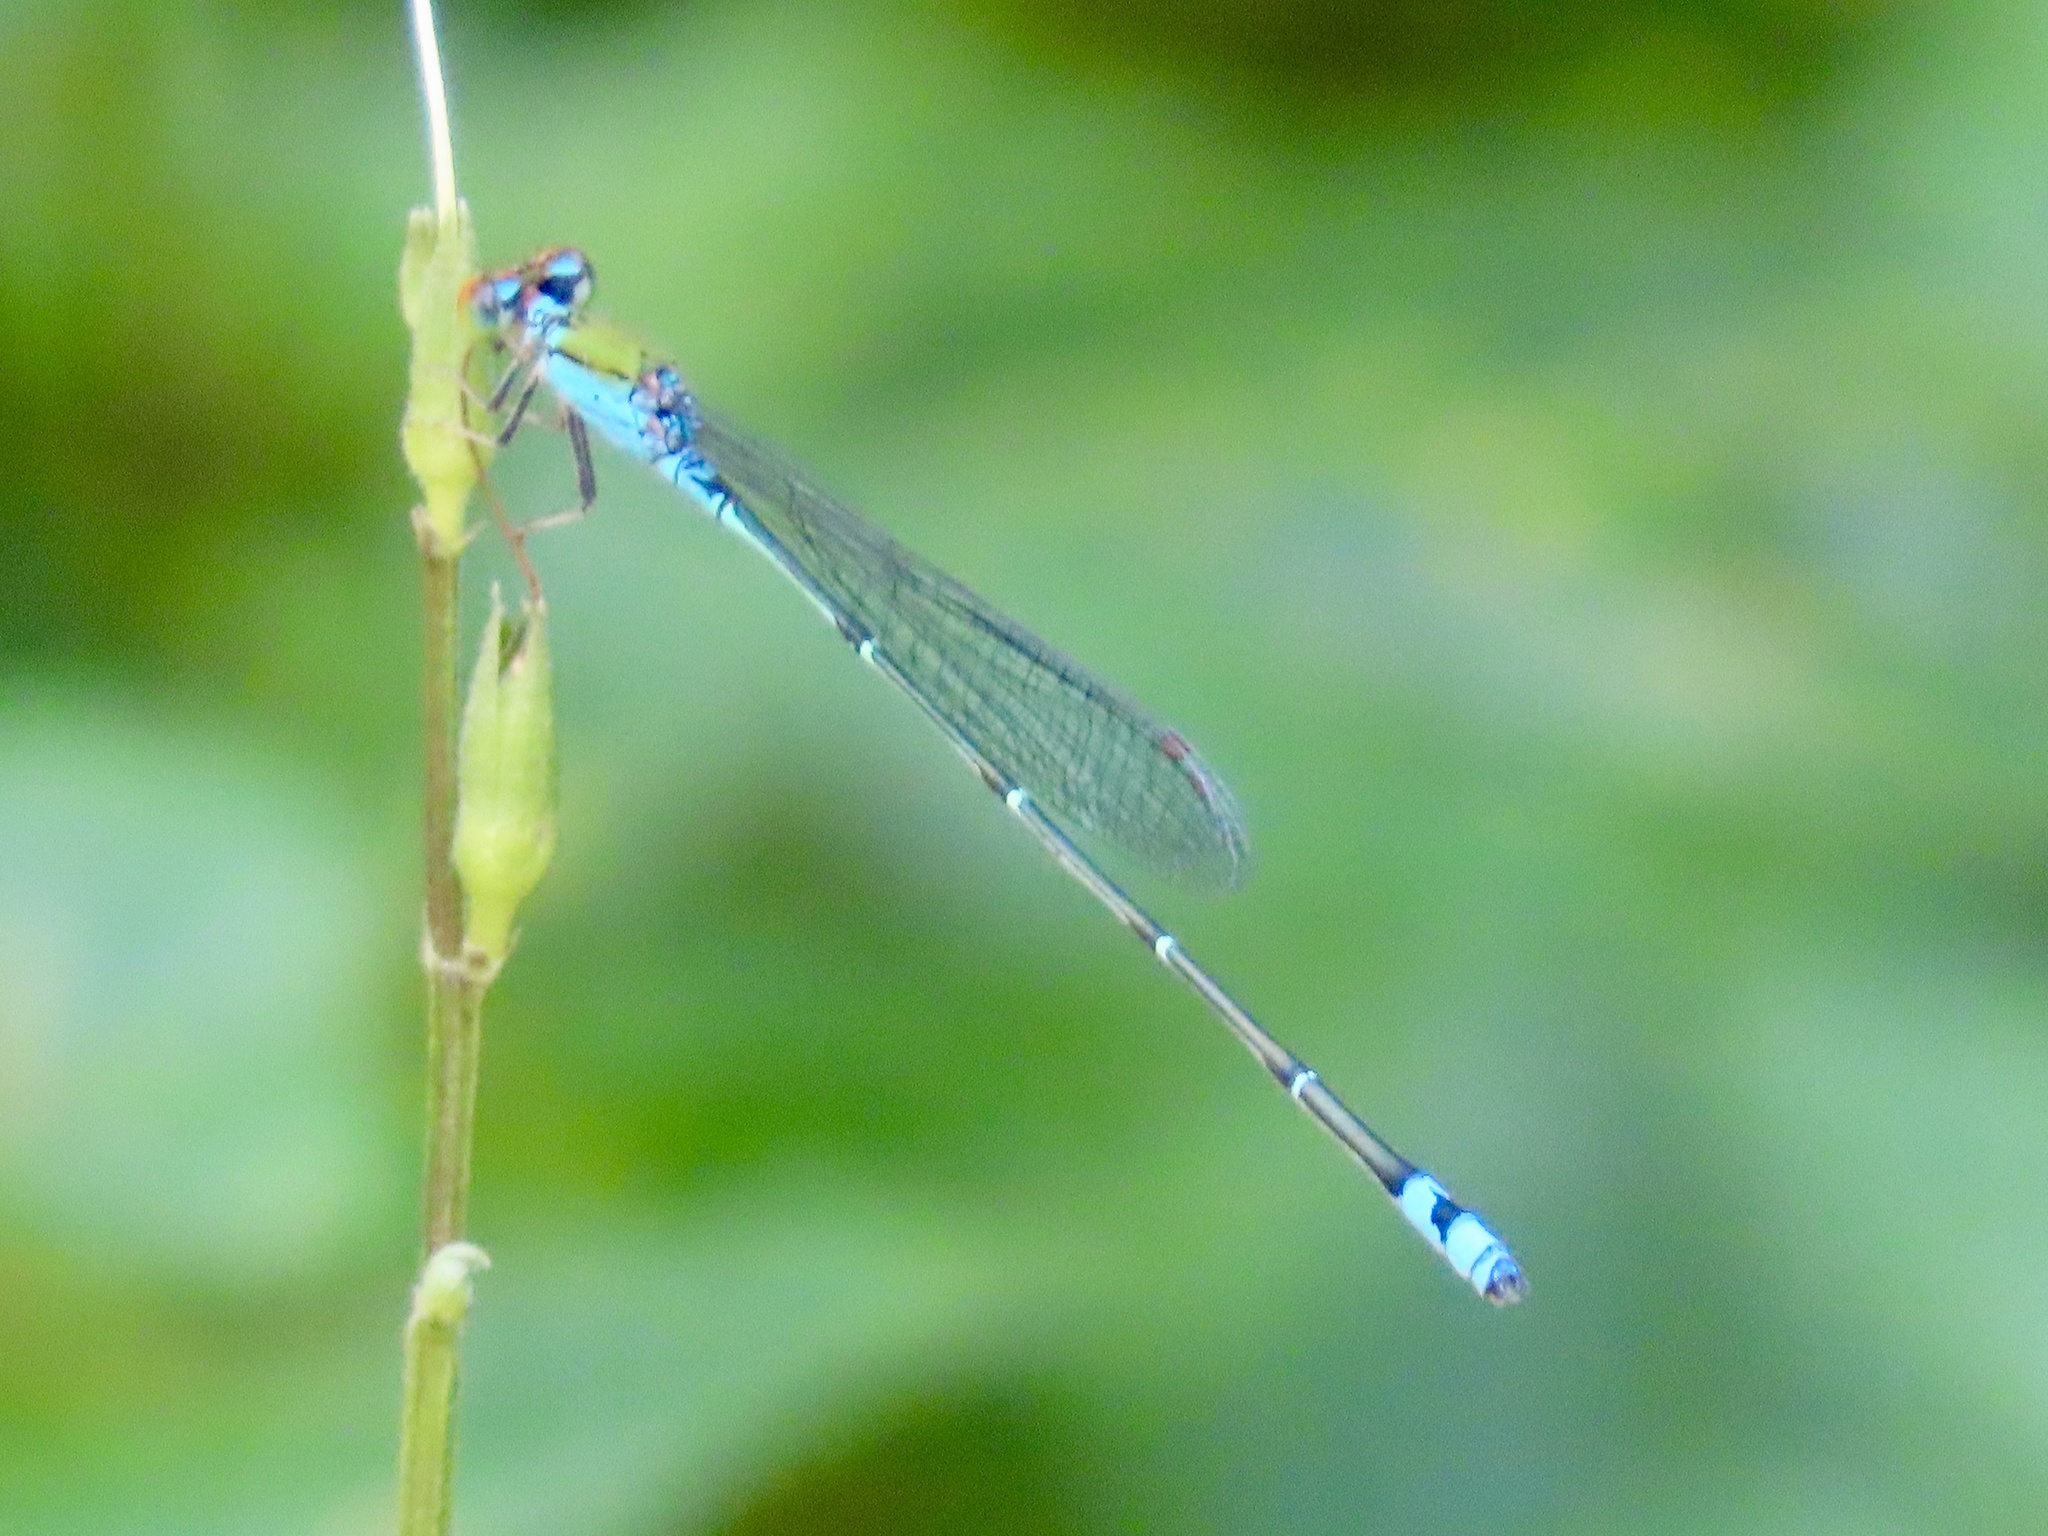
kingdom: Animalia
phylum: Arthropoda
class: Insecta
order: Odonata
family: Coenagrionidae
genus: Pseudagrion
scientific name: Pseudagrion rubriceps
